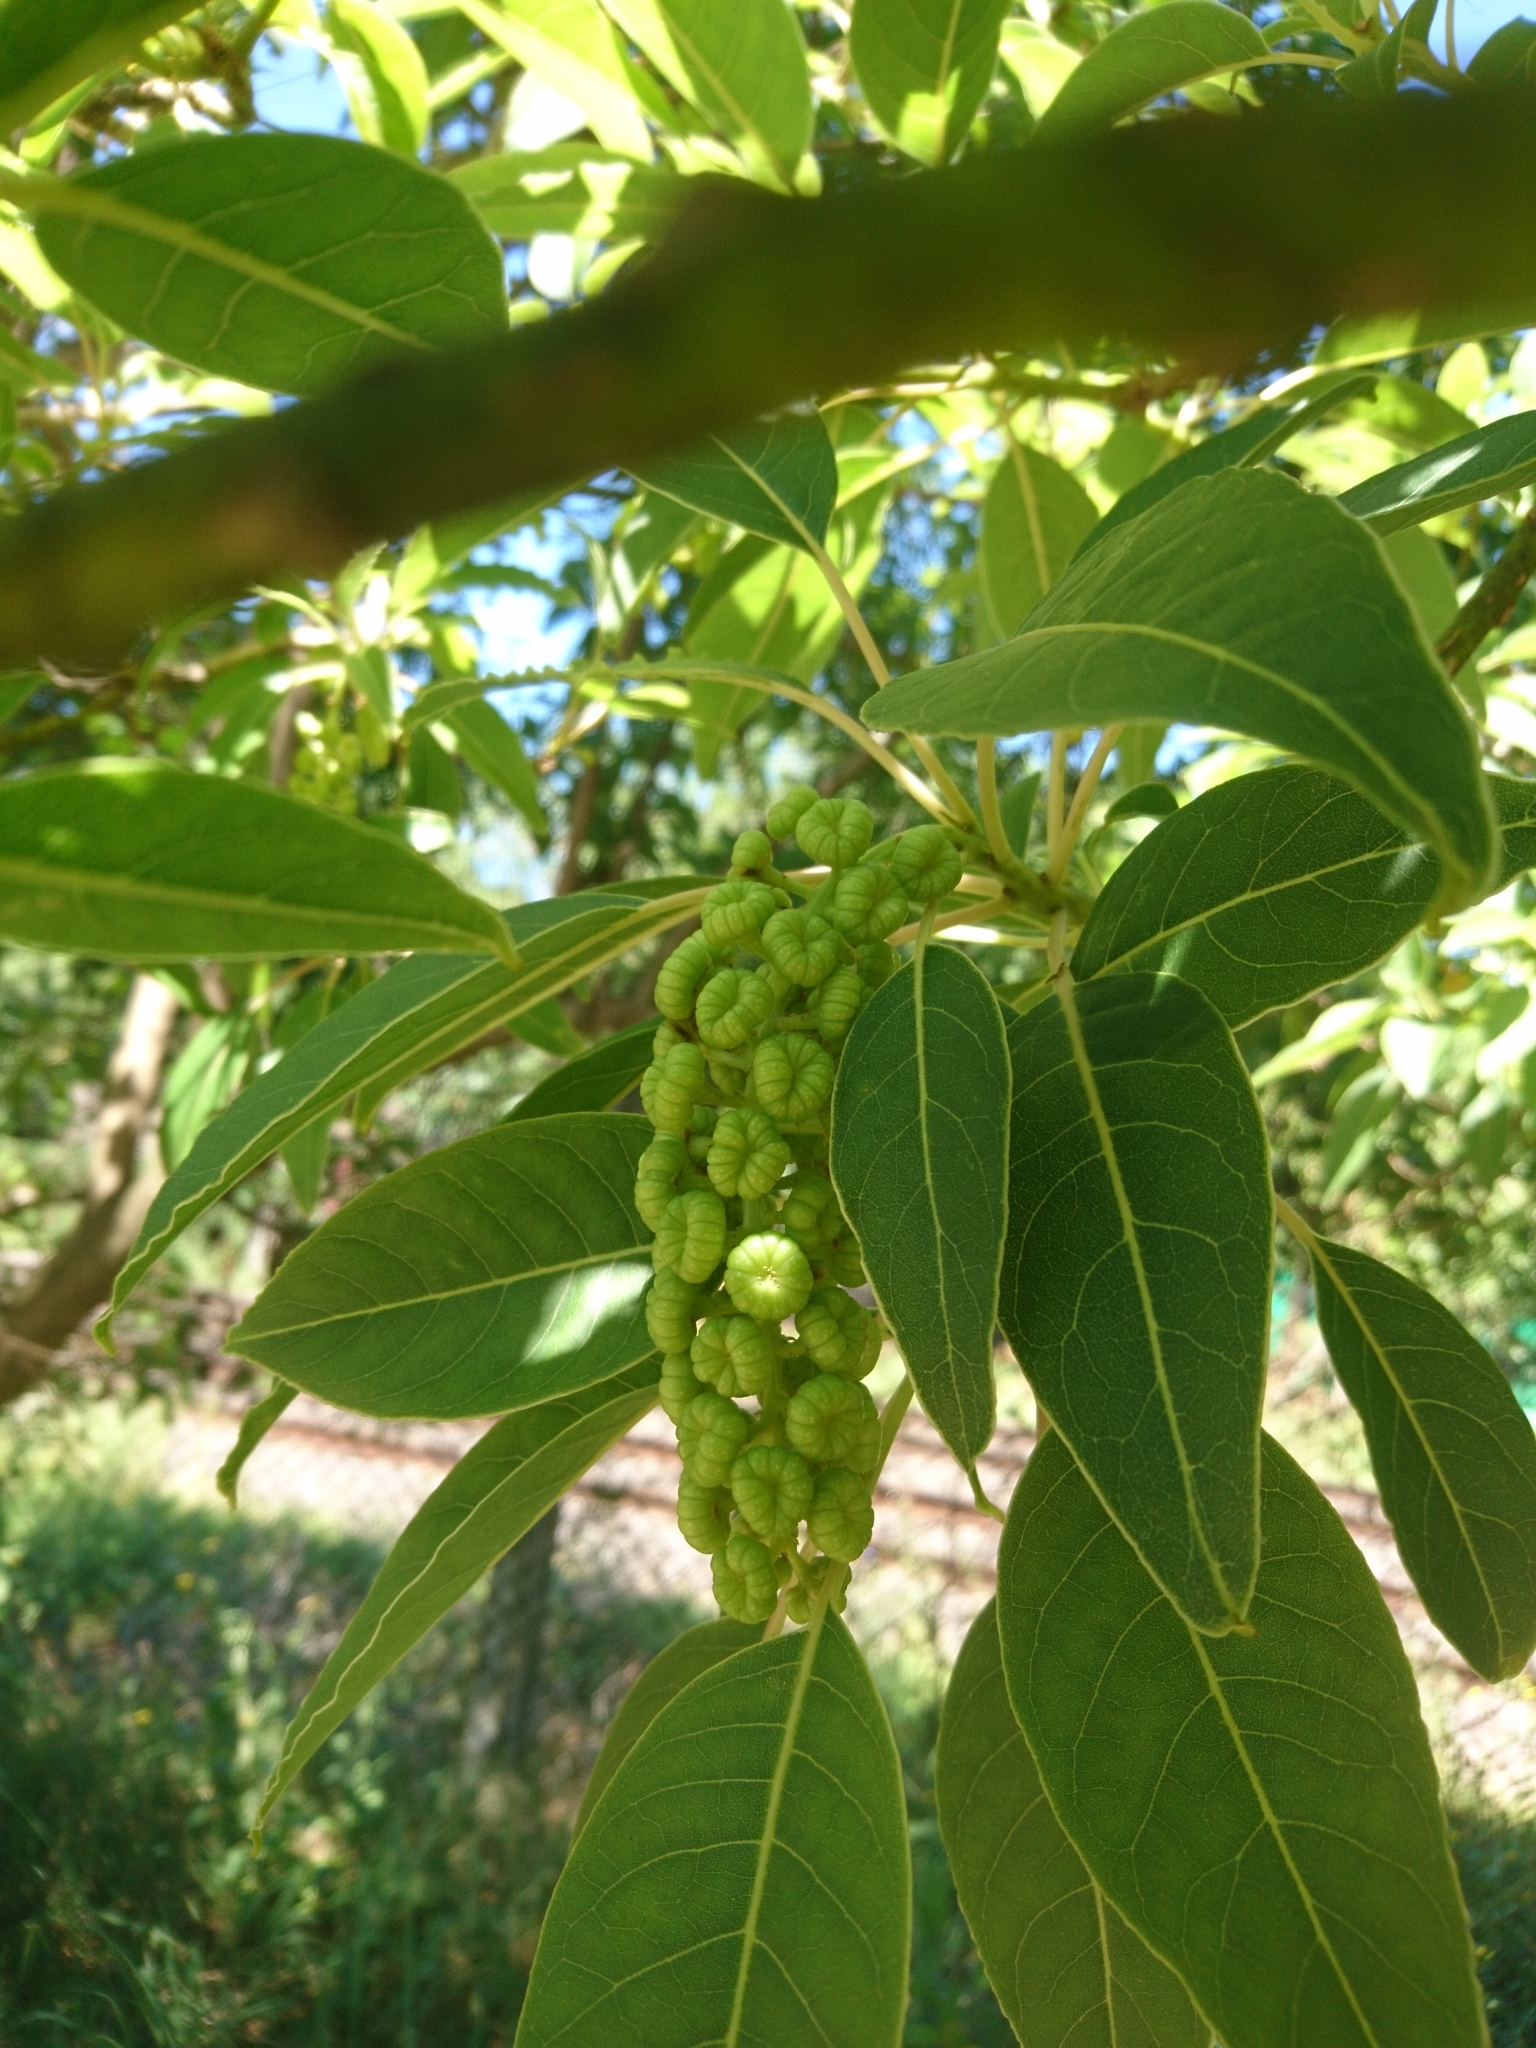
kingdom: Plantae
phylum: Tracheophyta
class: Magnoliopsida
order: Caryophyllales
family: Phytolaccaceae
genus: Phytolacca
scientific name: Phytolacca dioica
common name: Pokeweed
